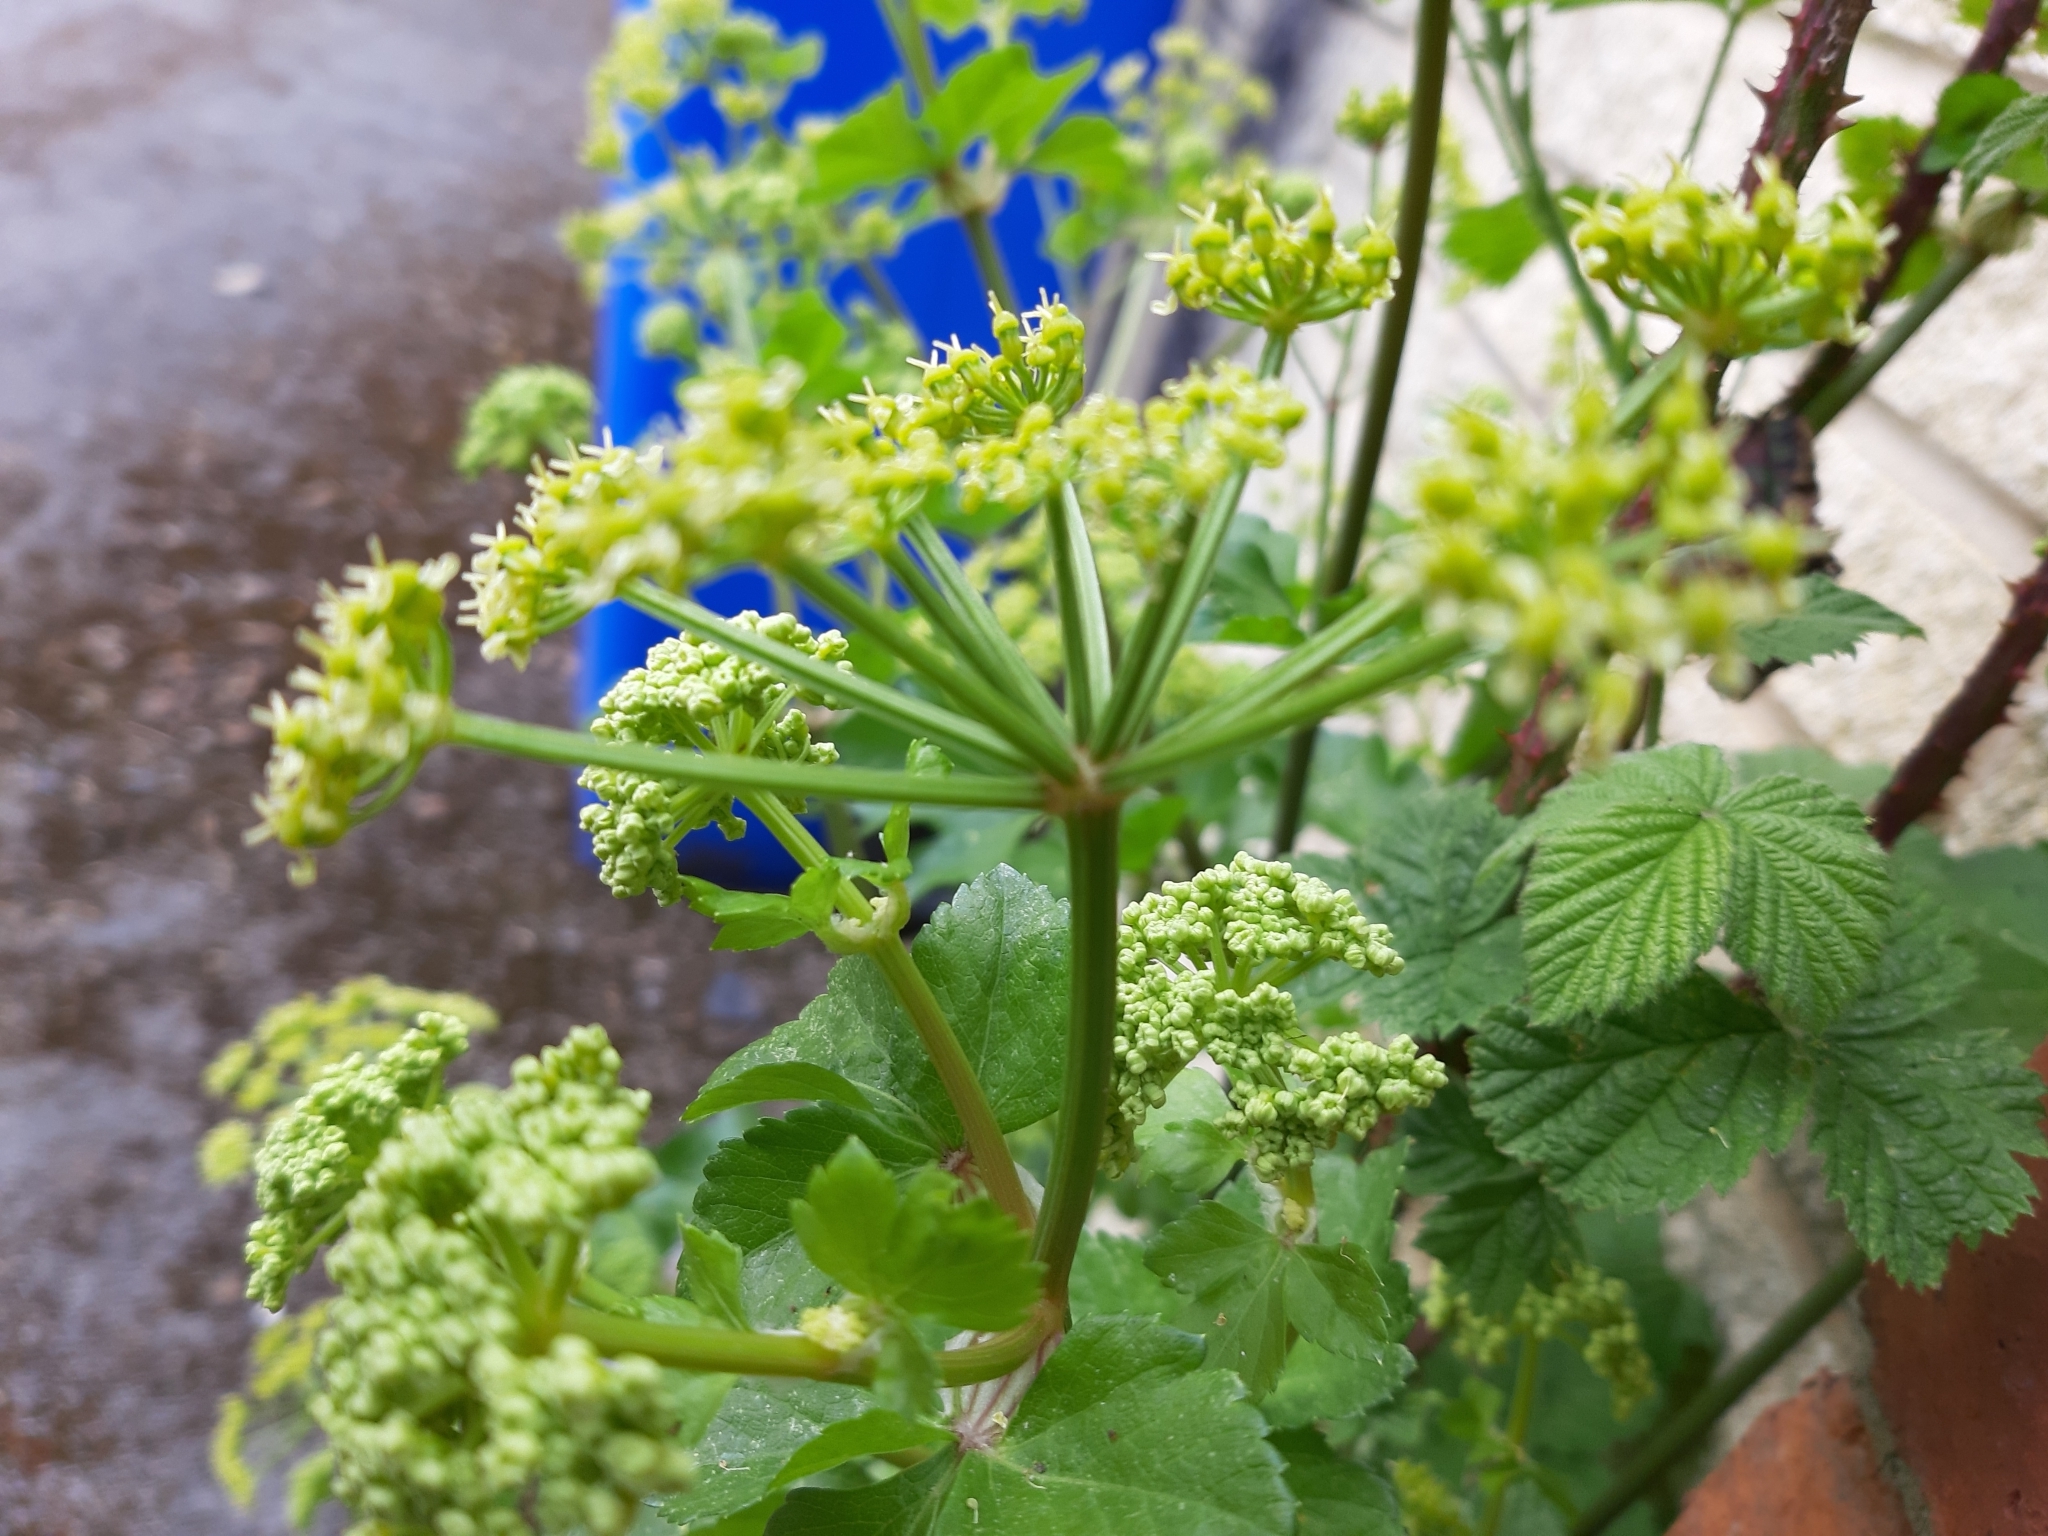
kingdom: Plantae
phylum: Tracheophyta
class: Magnoliopsida
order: Apiales
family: Apiaceae
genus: Smyrnium
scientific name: Smyrnium olusatrum
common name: Alexanders
